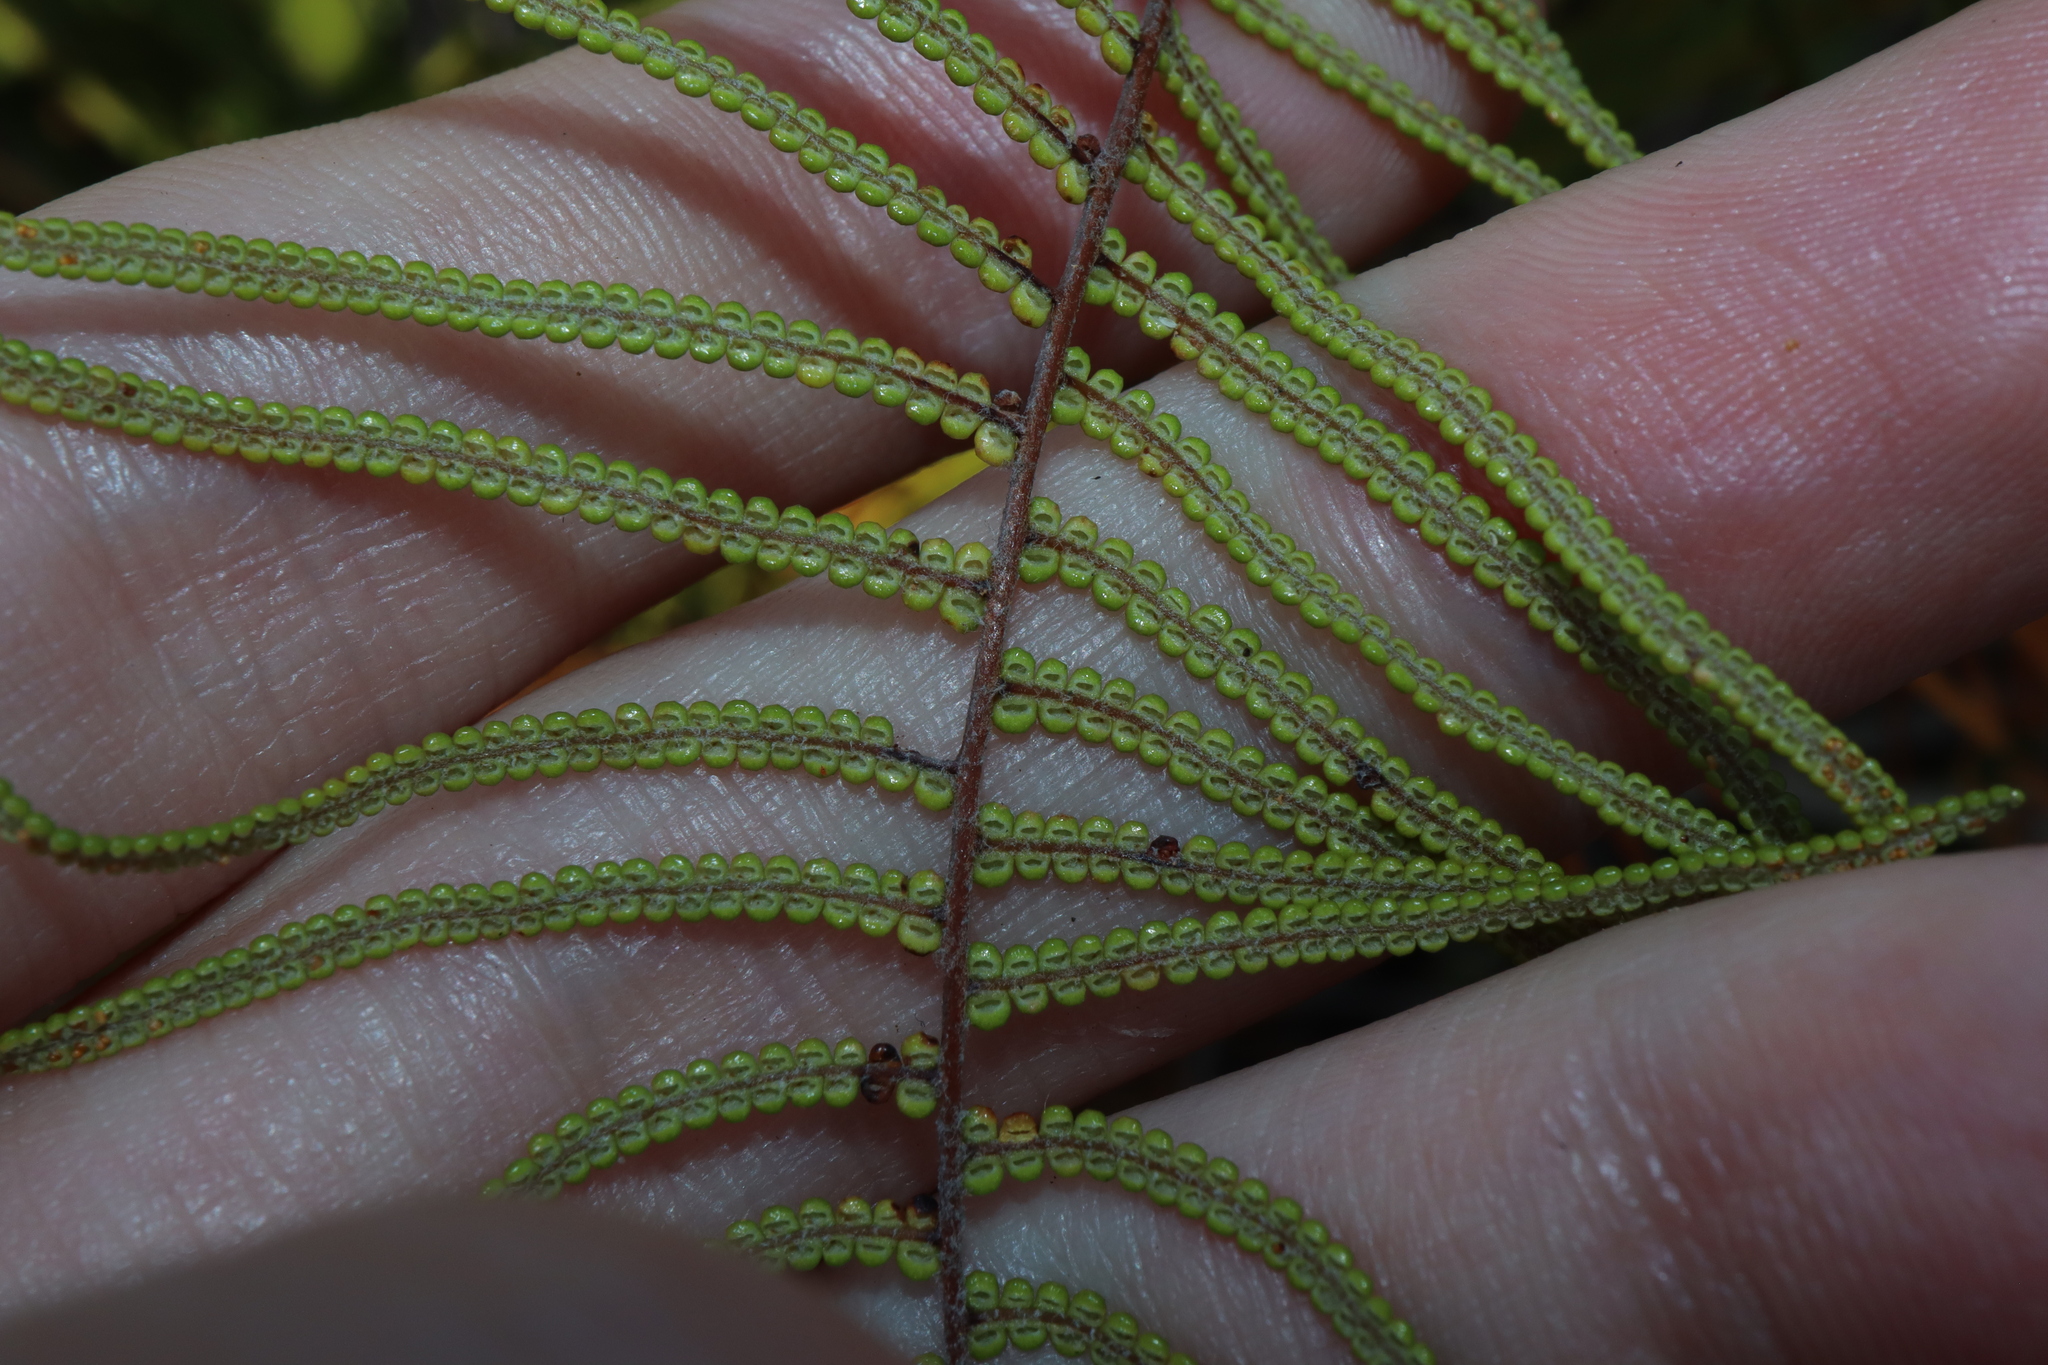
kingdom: Plantae
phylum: Tracheophyta
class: Polypodiopsida
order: Gleicheniales
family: Gleicheniaceae
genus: Gleichenia
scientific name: Gleichenia dicarpa
